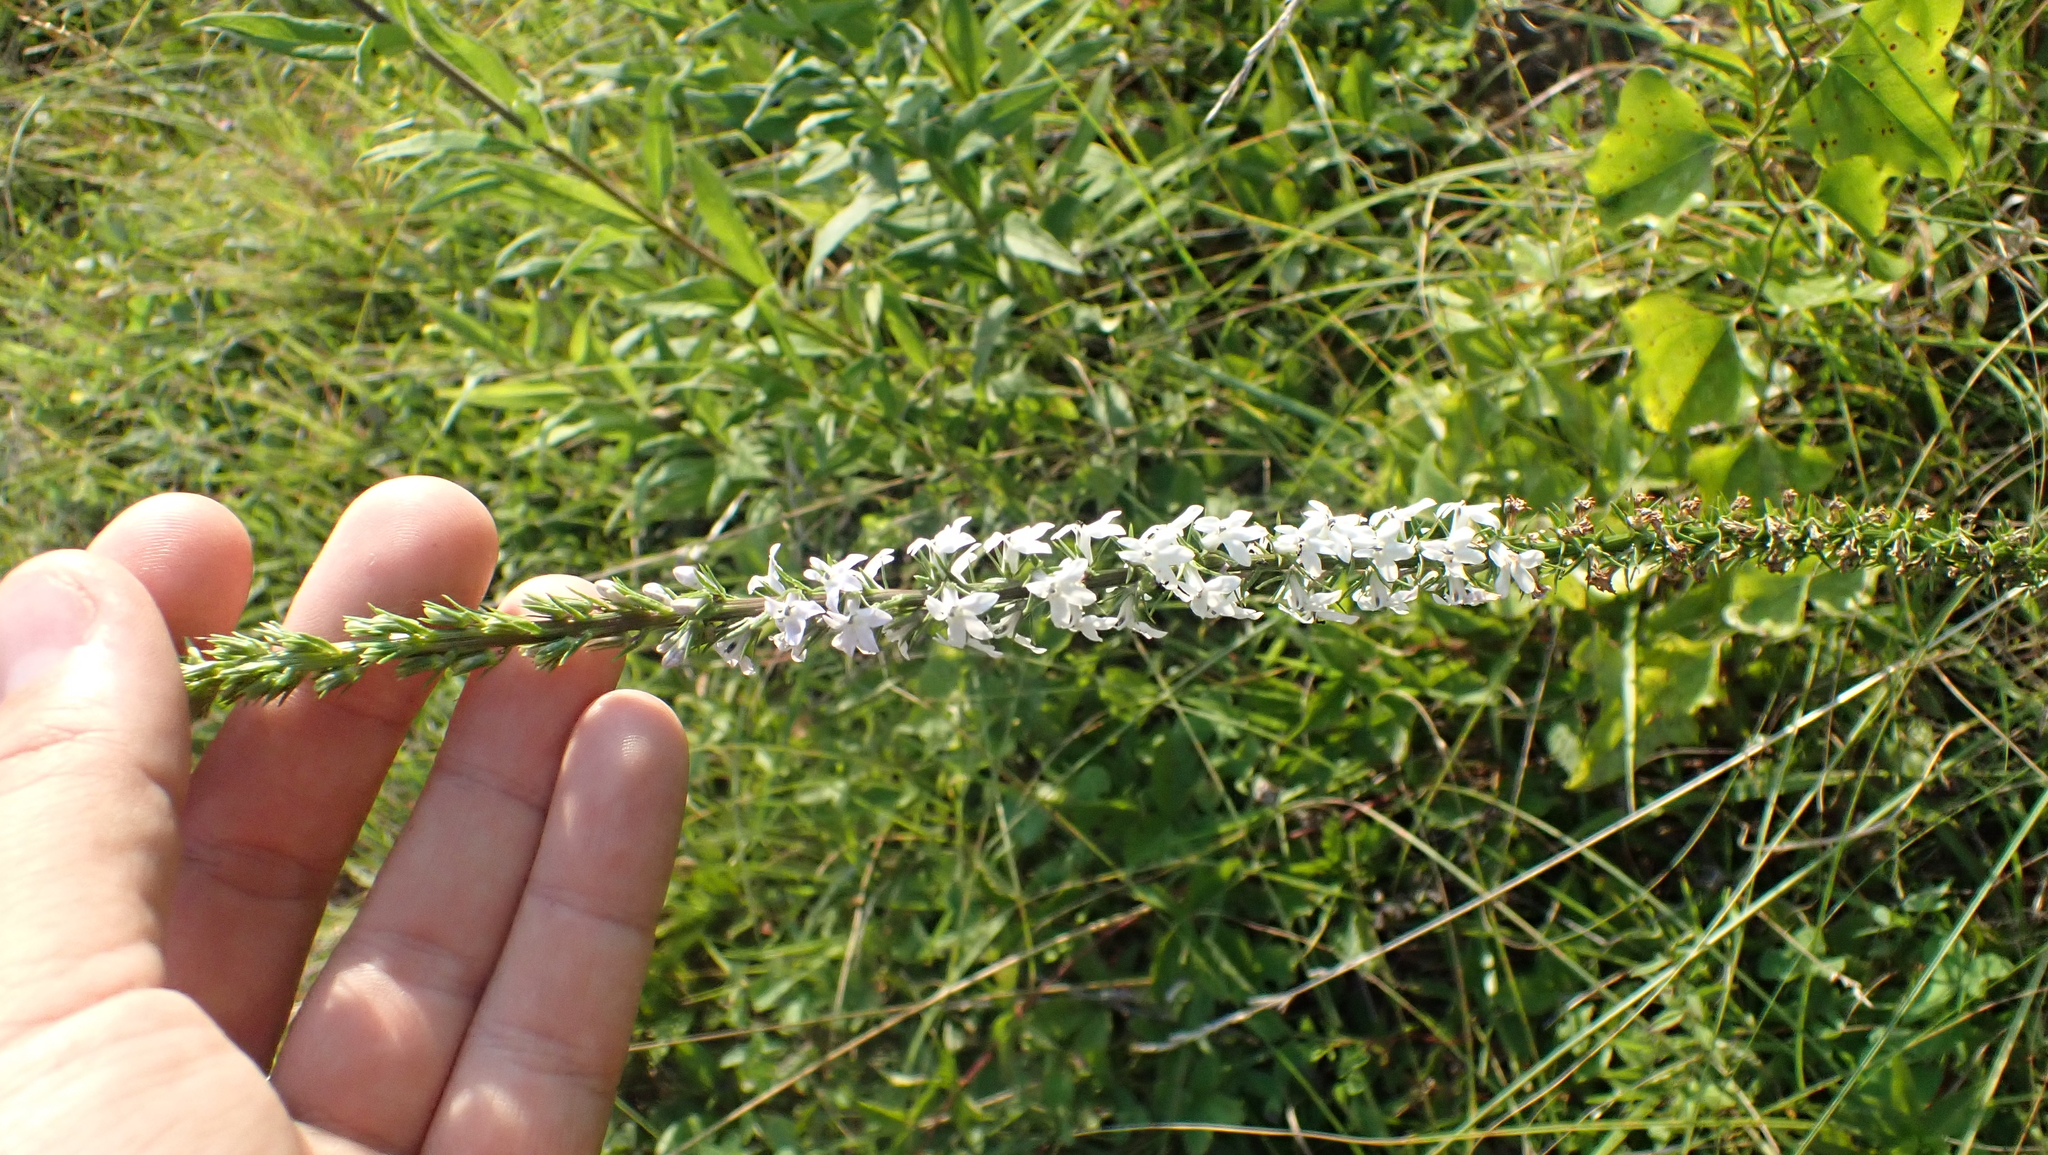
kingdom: Plantae
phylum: Tracheophyta
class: Magnoliopsida
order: Asterales
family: Campanulaceae
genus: Lobelia
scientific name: Lobelia spicata
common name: Pale-spike lobelia
